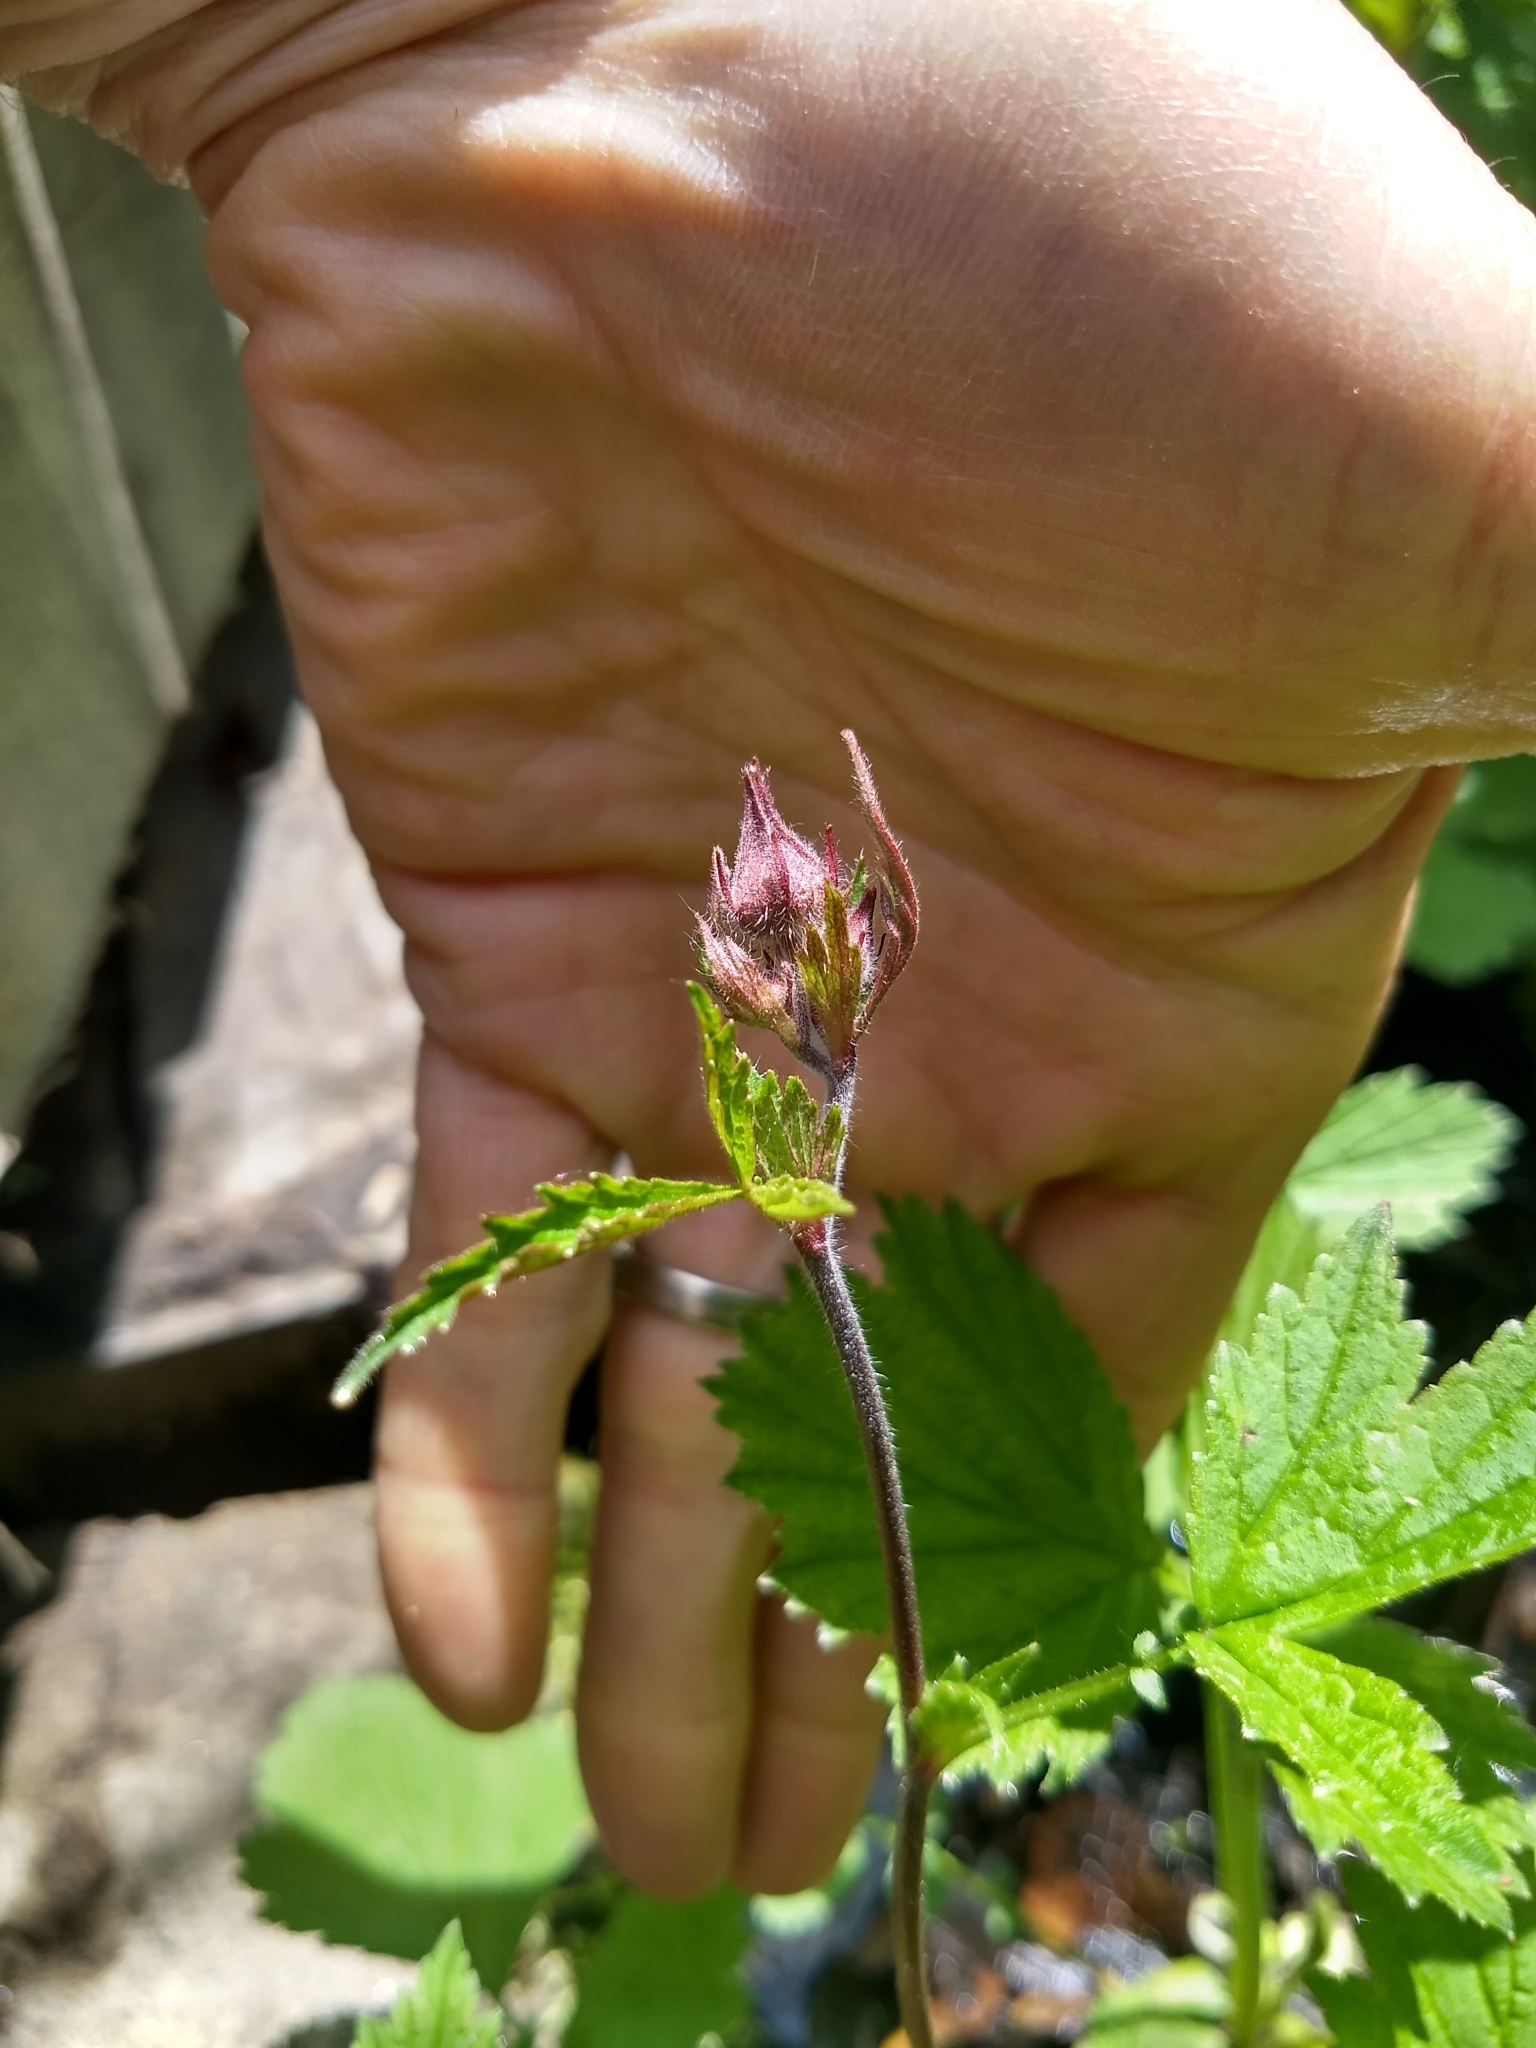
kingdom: Plantae
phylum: Tracheophyta
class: Magnoliopsida
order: Rosales
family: Rosaceae
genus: Geum
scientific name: Geum rivale
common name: Water avens
